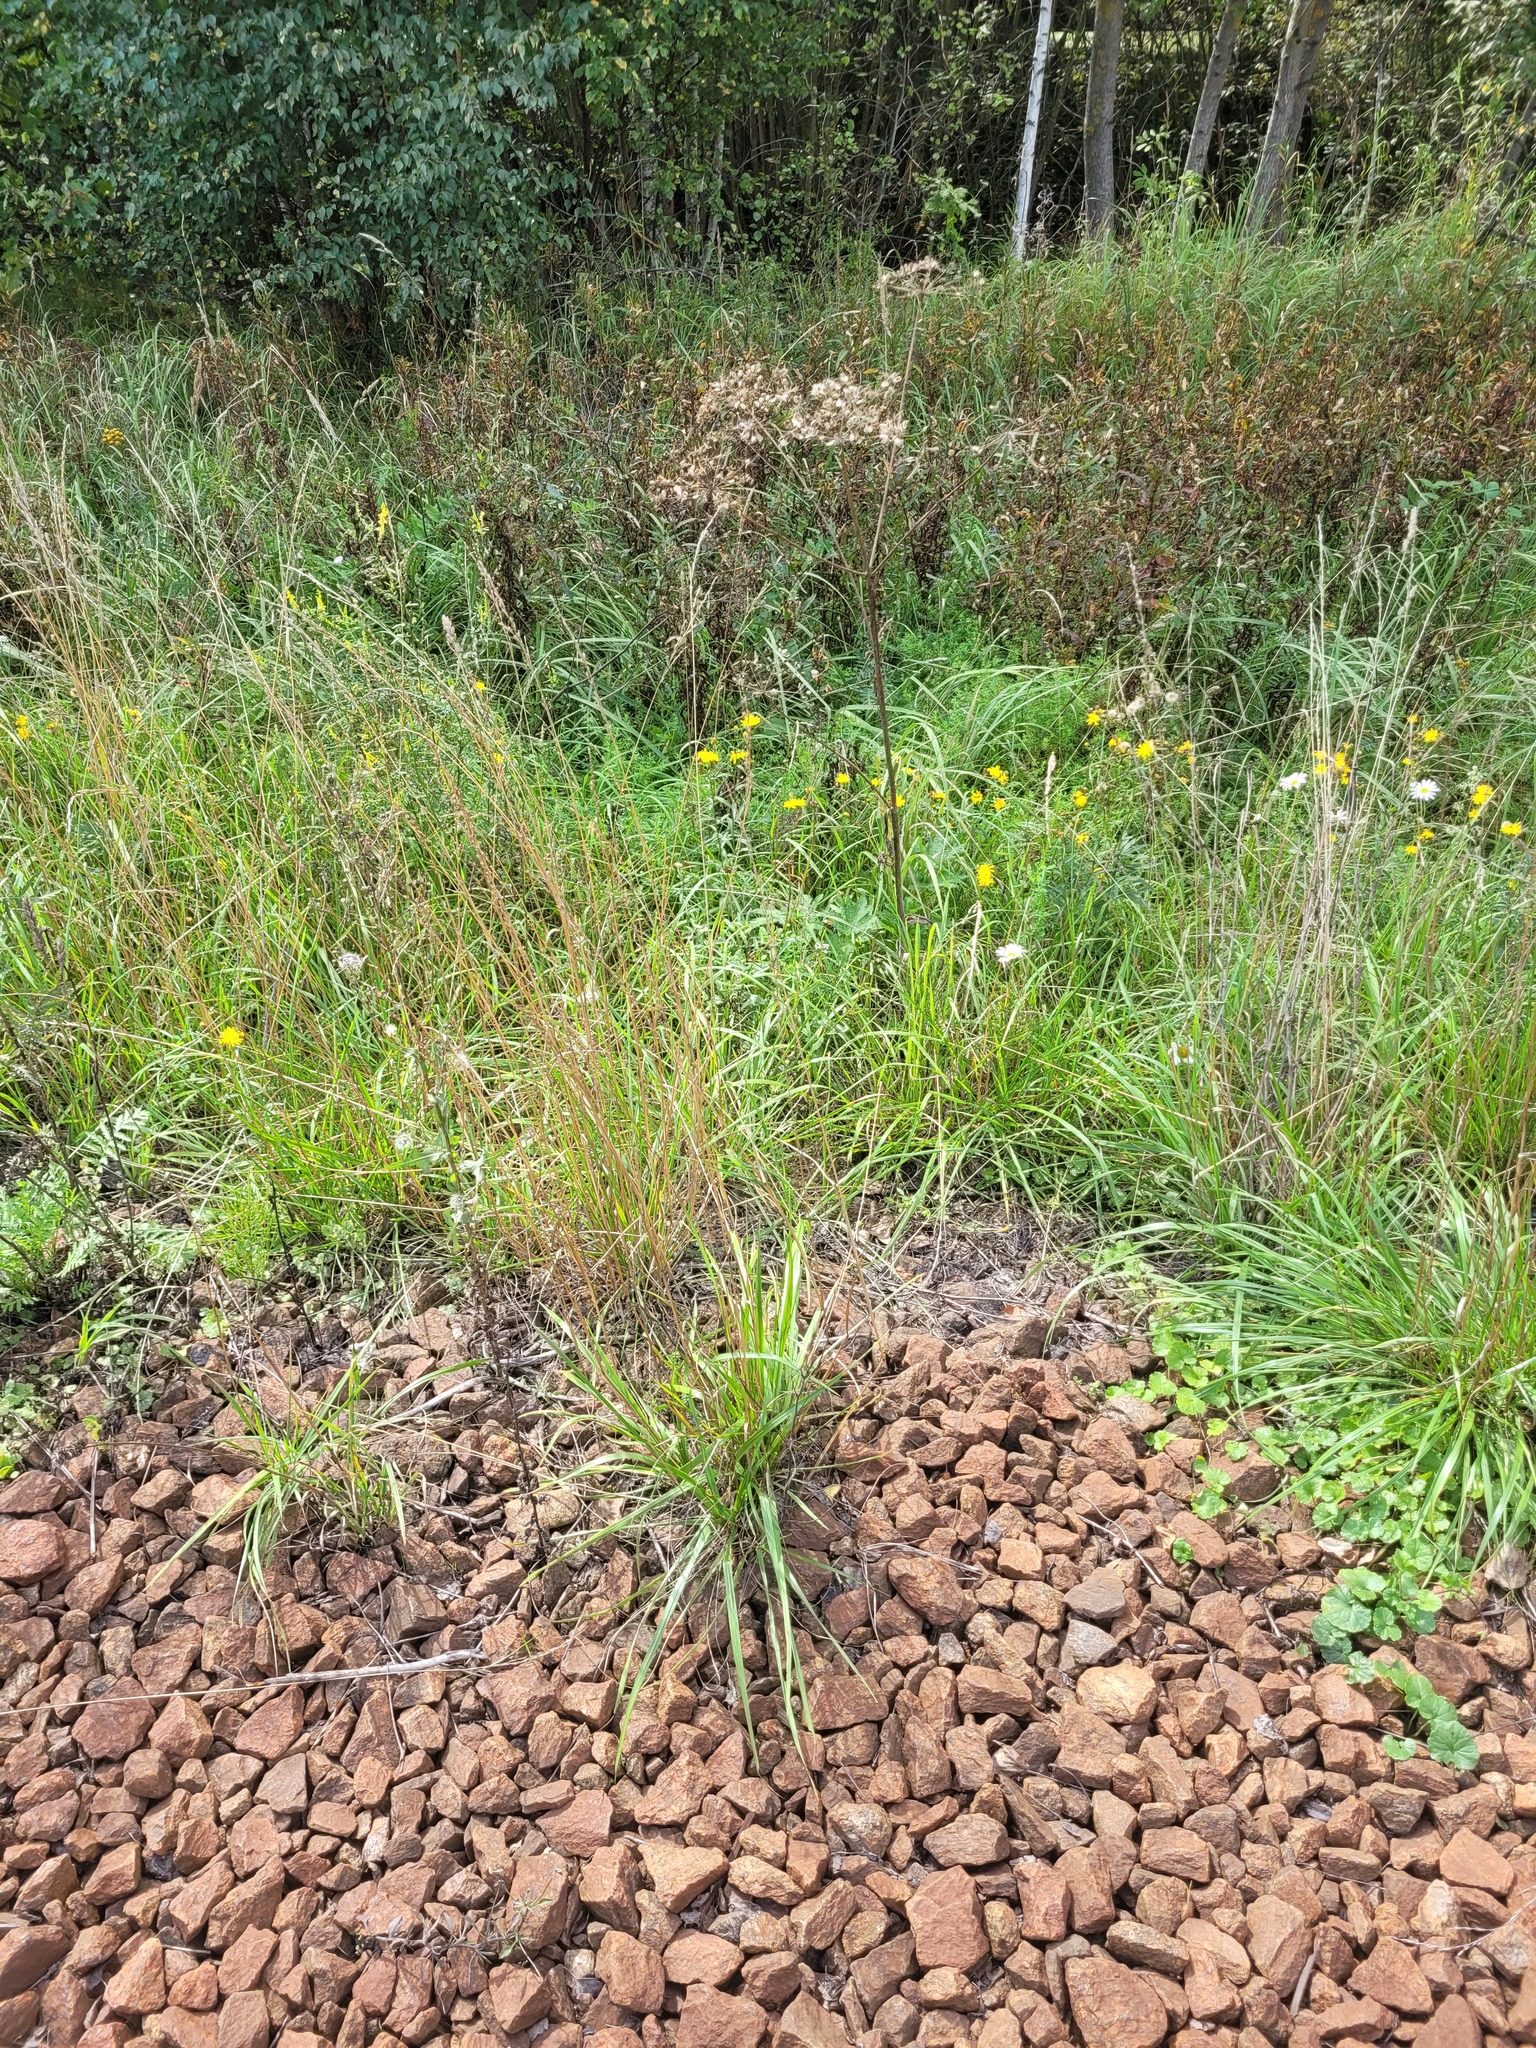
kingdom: Plantae
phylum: Tracheophyta
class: Liliopsida
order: Poales
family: Poaceae
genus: Lolium
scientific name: Lolium pratense
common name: Dover grass
